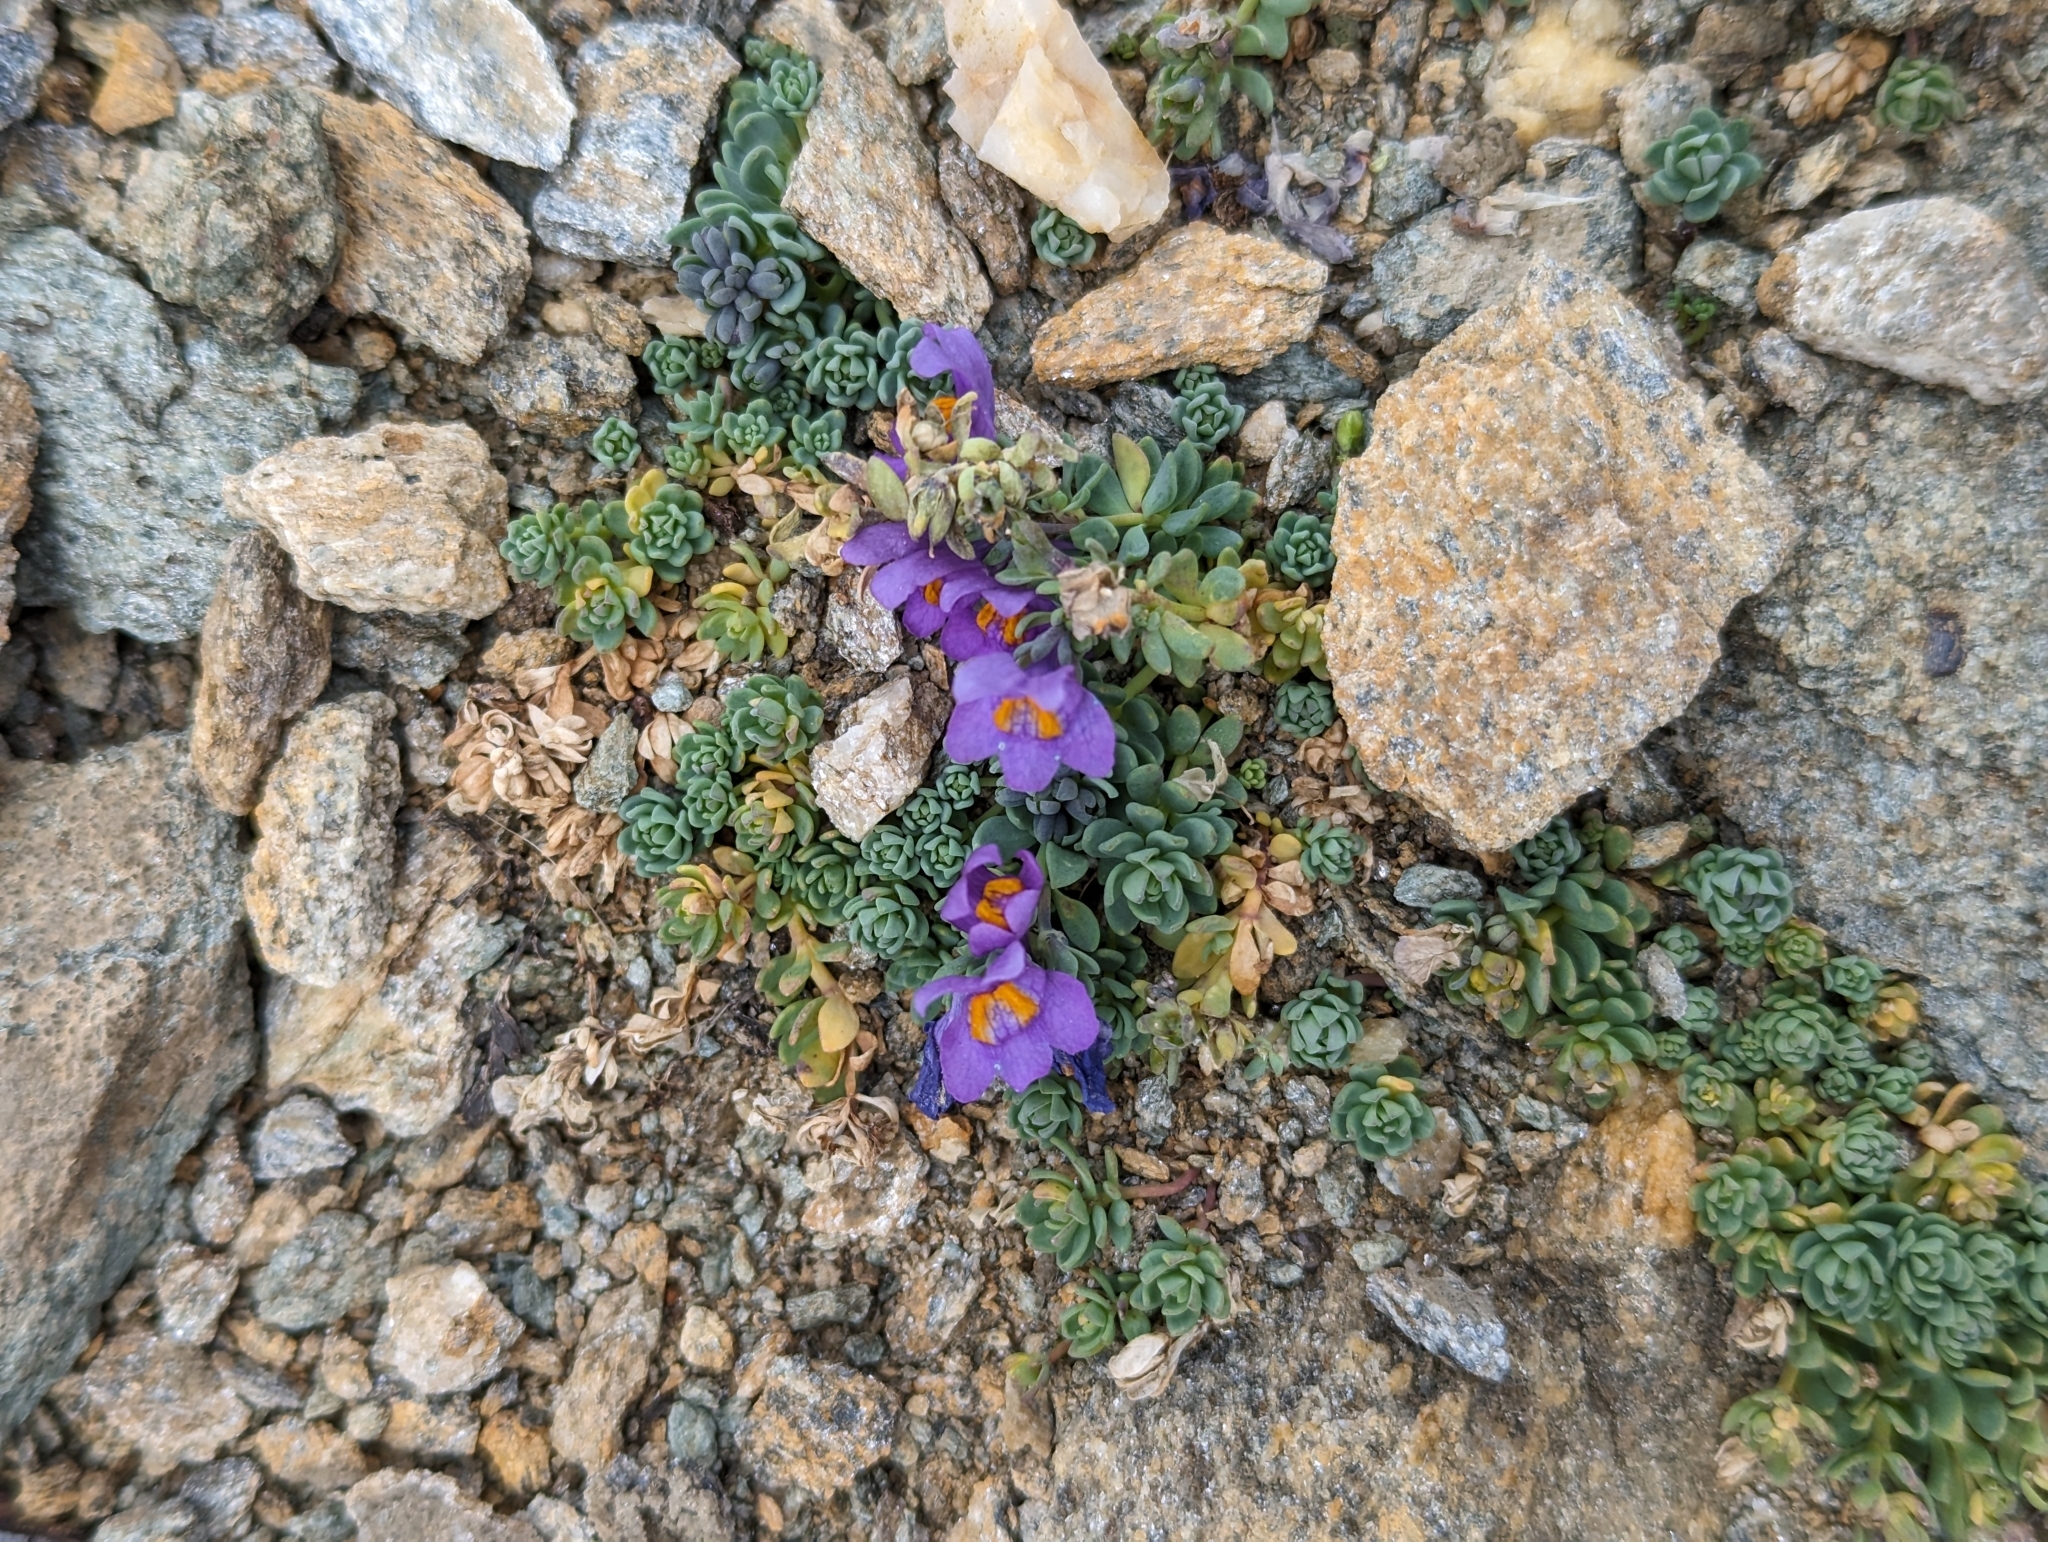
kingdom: Plantae
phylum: Tracheophyta
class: Magnoliopsida
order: Lamiales
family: Plantaginaceae
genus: Linaria
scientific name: Linaria alpina
